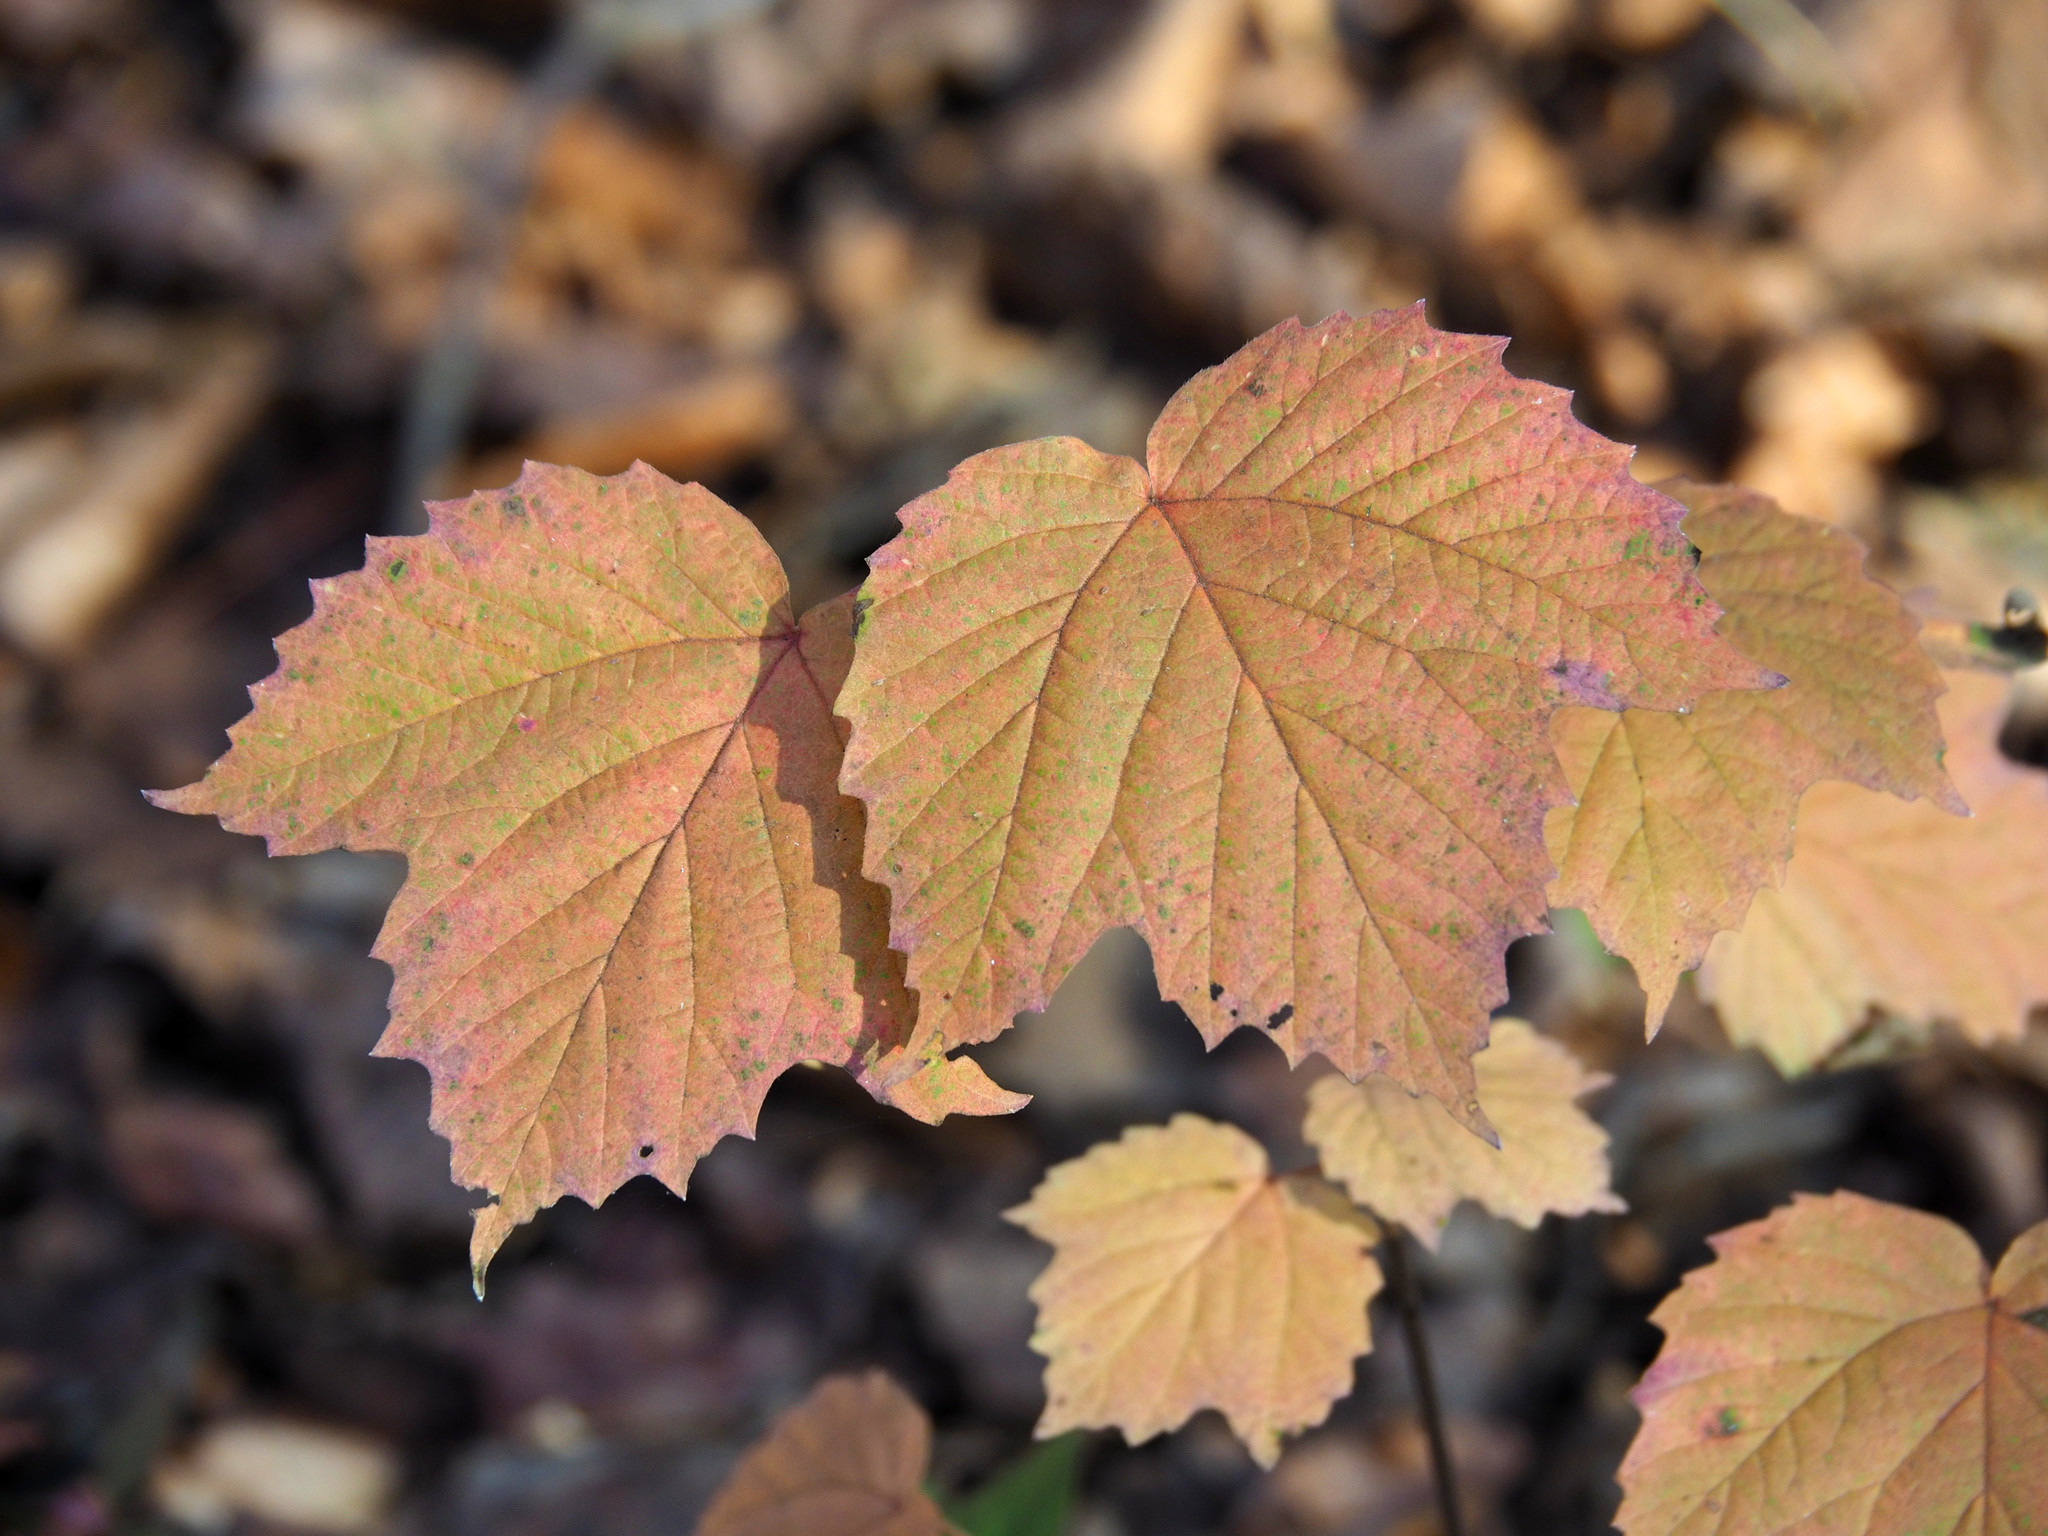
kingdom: Plantae
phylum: Tracheophyta
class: Magnoliopsida
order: Dipsacales
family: Viburnaceae
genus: Viburnum
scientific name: Viburnum acerifolium
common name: Dockmackie
